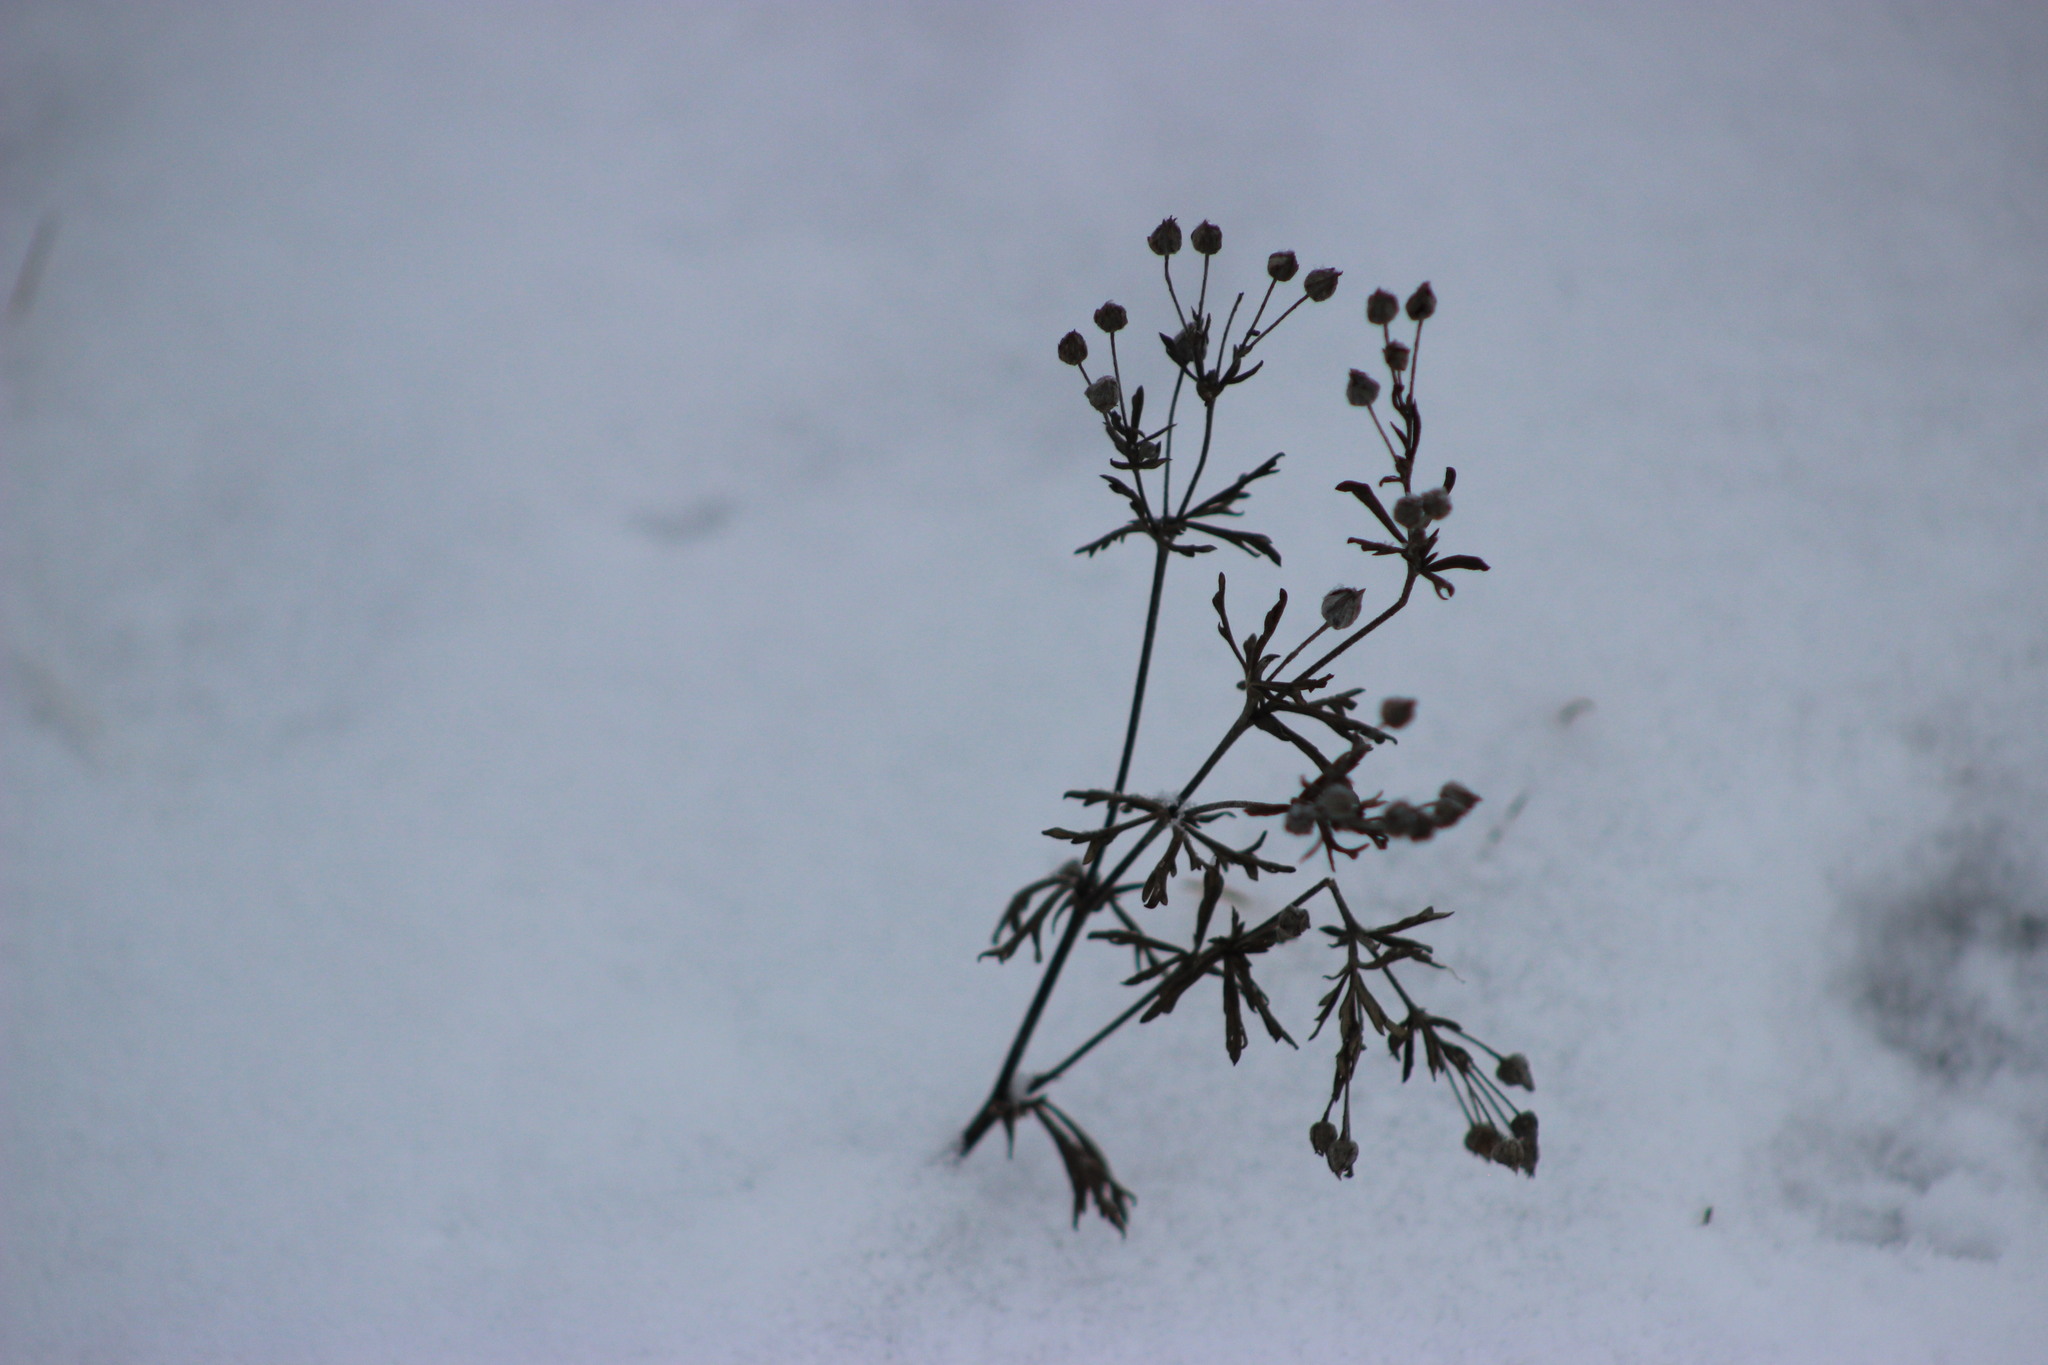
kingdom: Plantae
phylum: Tracheophyta
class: Magnoliopsida
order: Rosales
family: Rosaceae
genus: Potentilla
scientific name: Potentilla argentea
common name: Hoary cinquefoil
